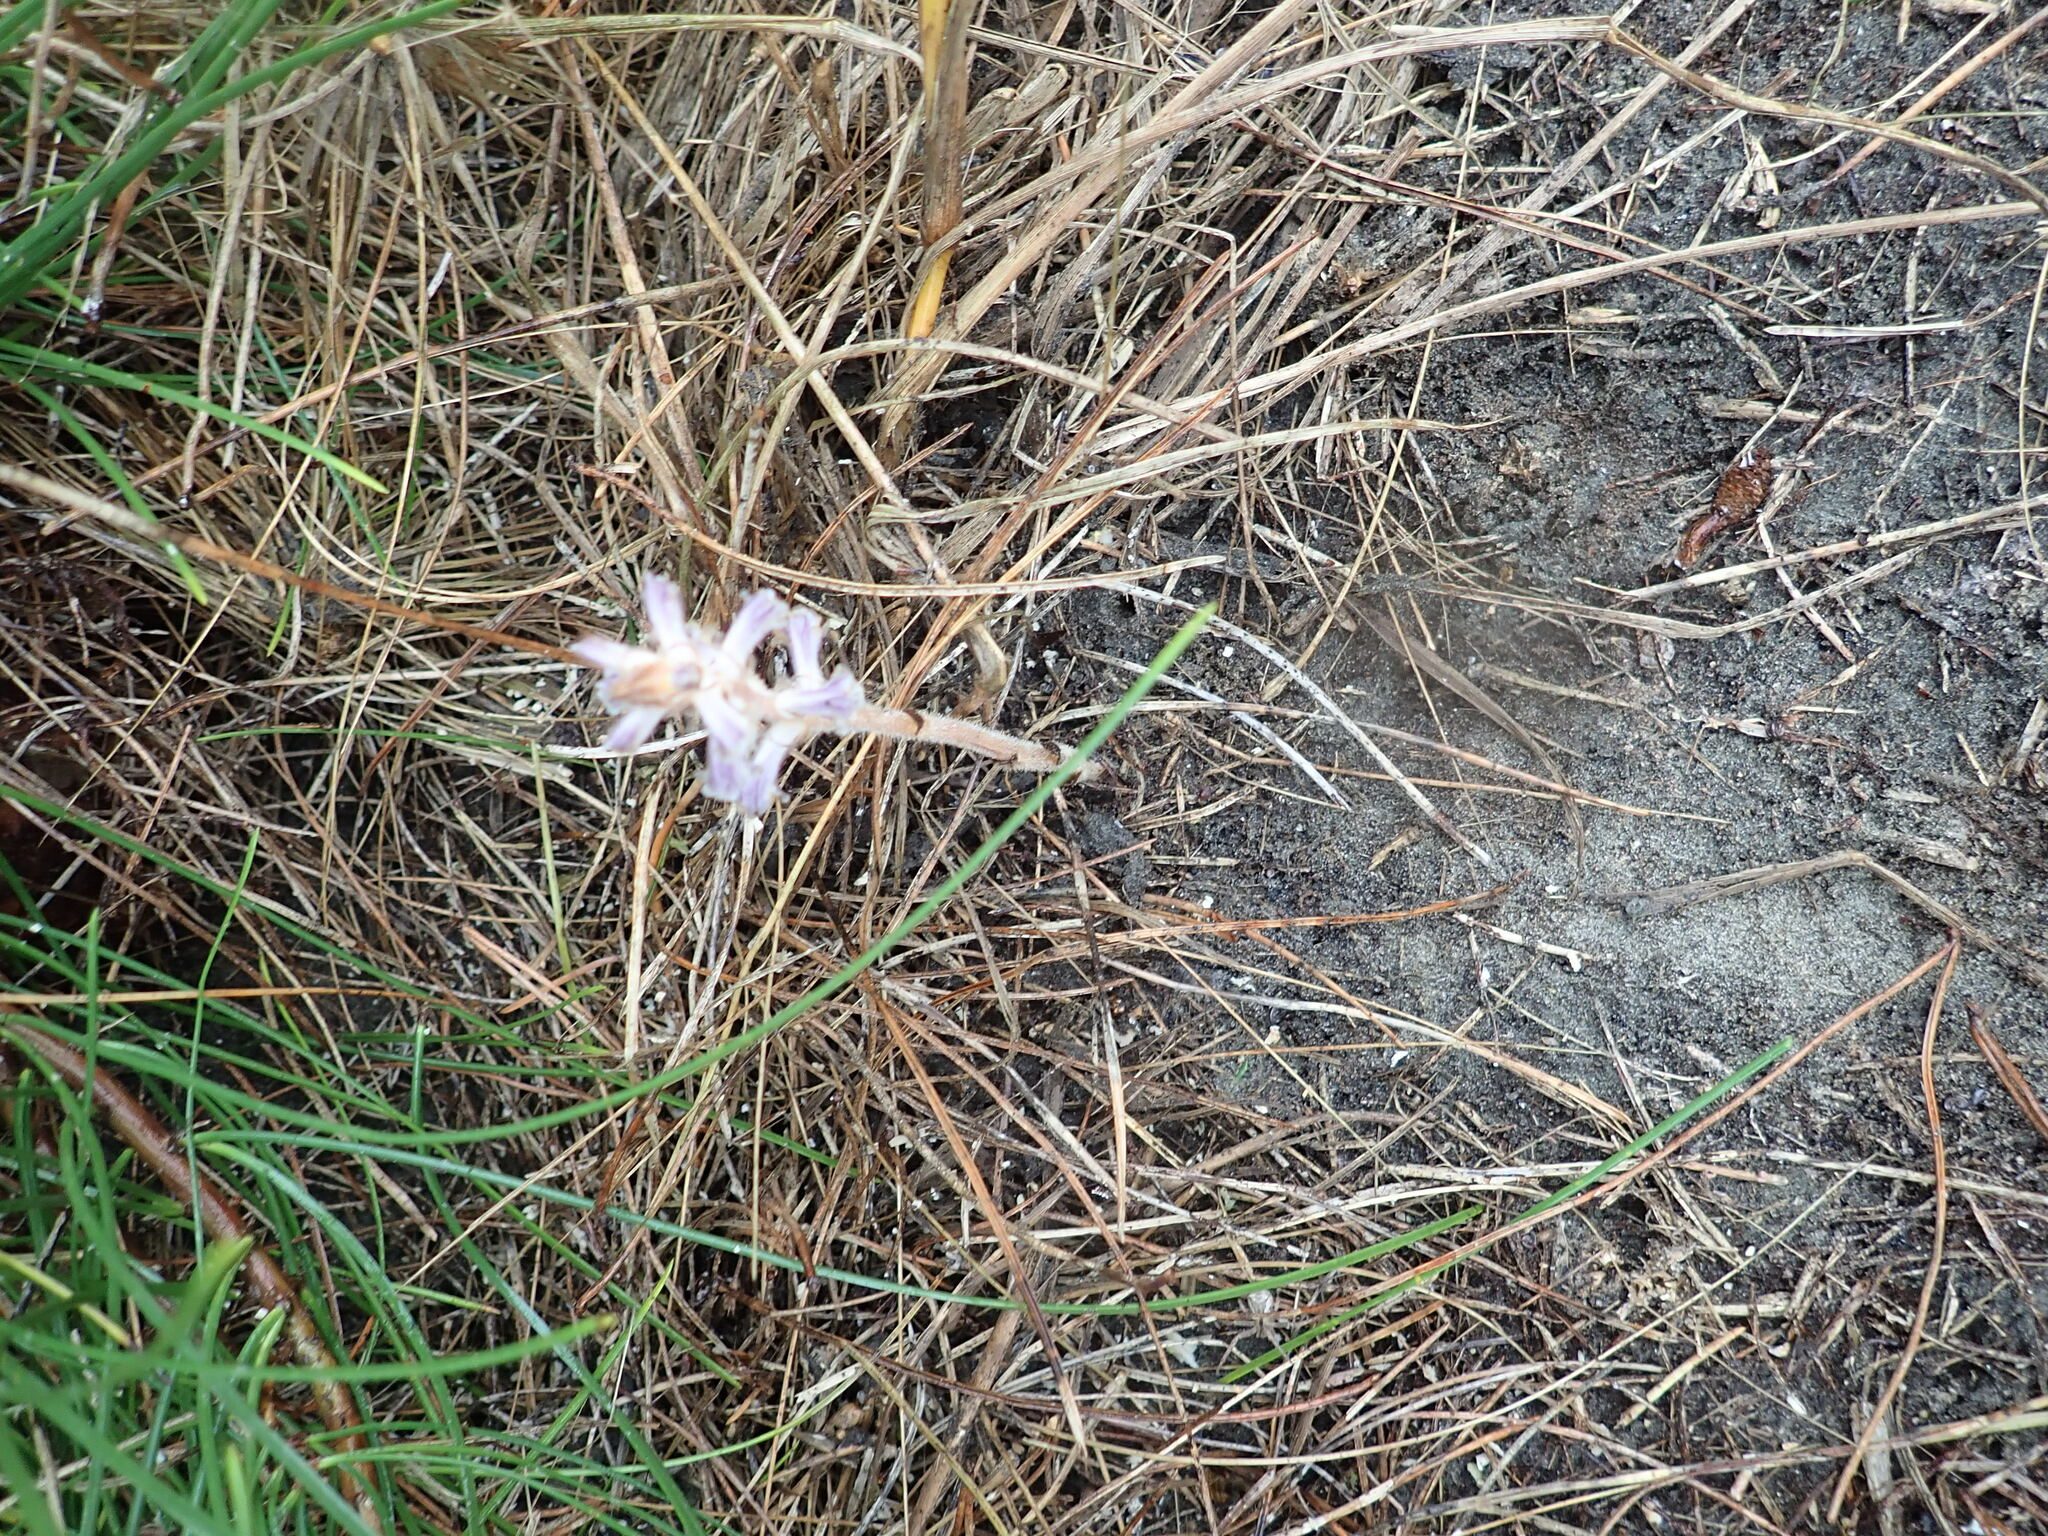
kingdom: Plantae
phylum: Tracheophyta
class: Magnoliopsida
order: Lamiales
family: Orobanchaceae
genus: Orobanche
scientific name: Orobanche minor
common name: Common broomrape
